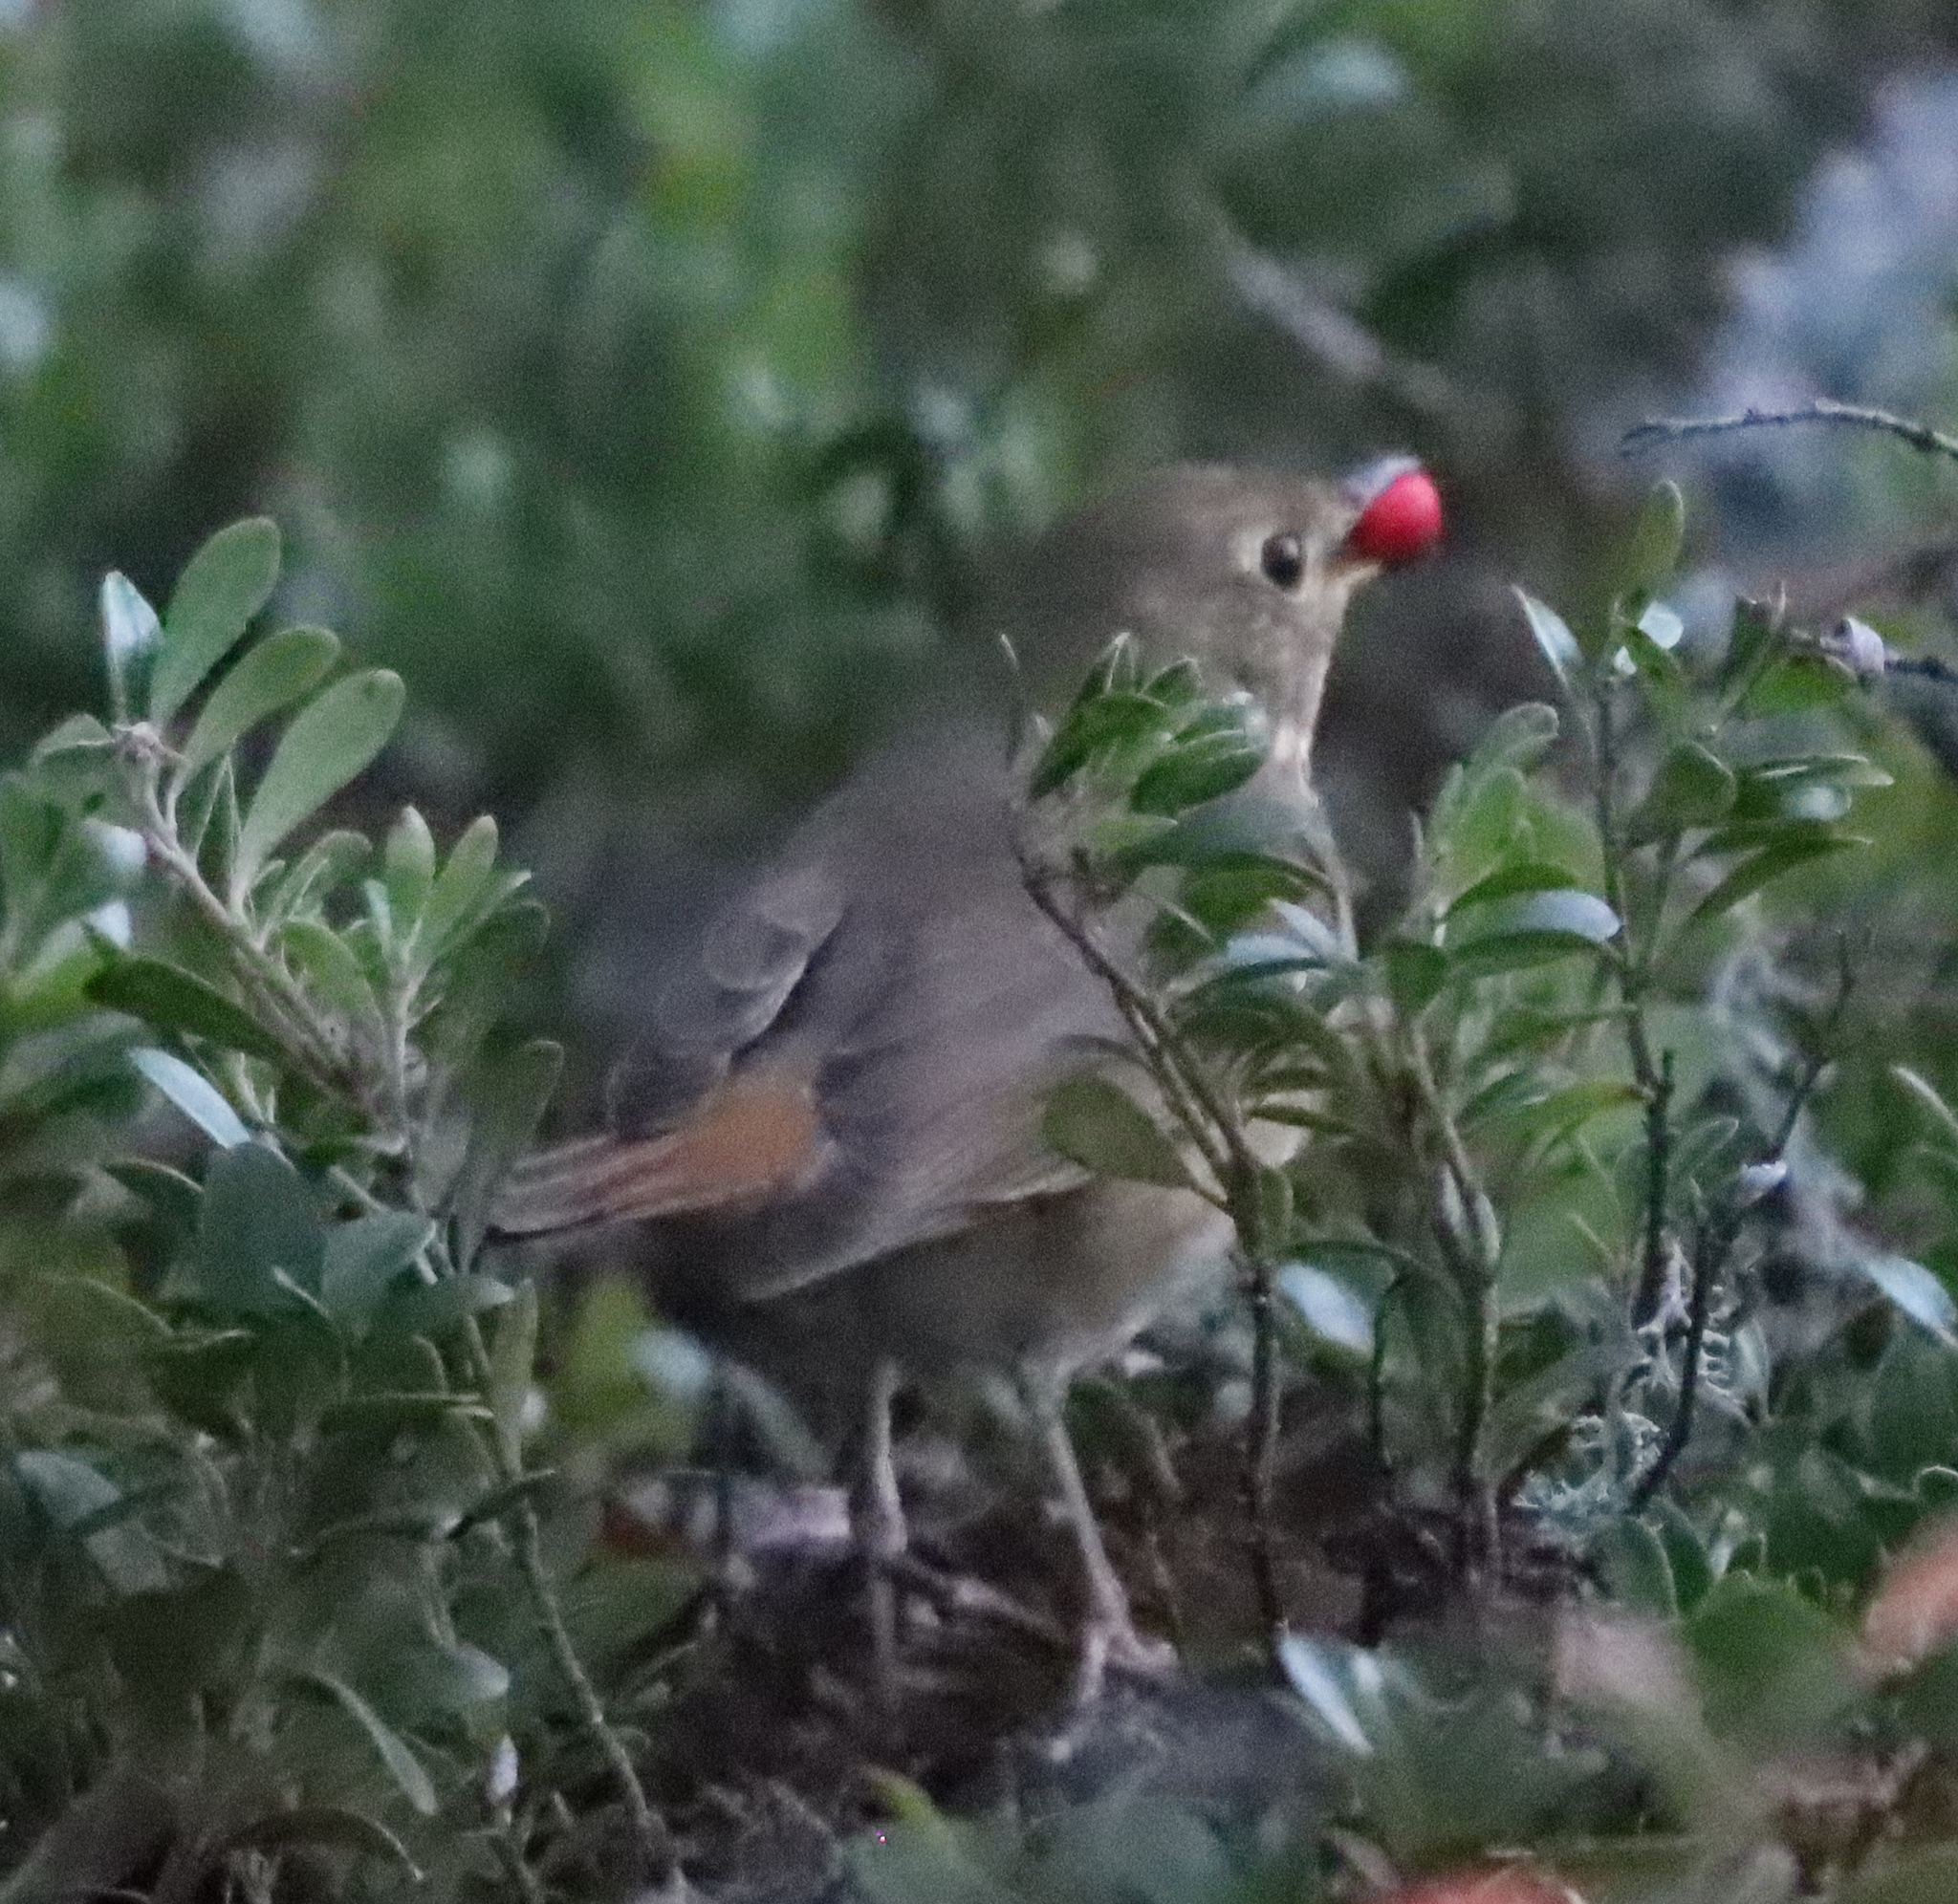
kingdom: Animalia
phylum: Chordata
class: Aves
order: Passeriformes
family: Turdidae
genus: Catharus
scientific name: Catharus guttatus
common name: Hermit thrush
